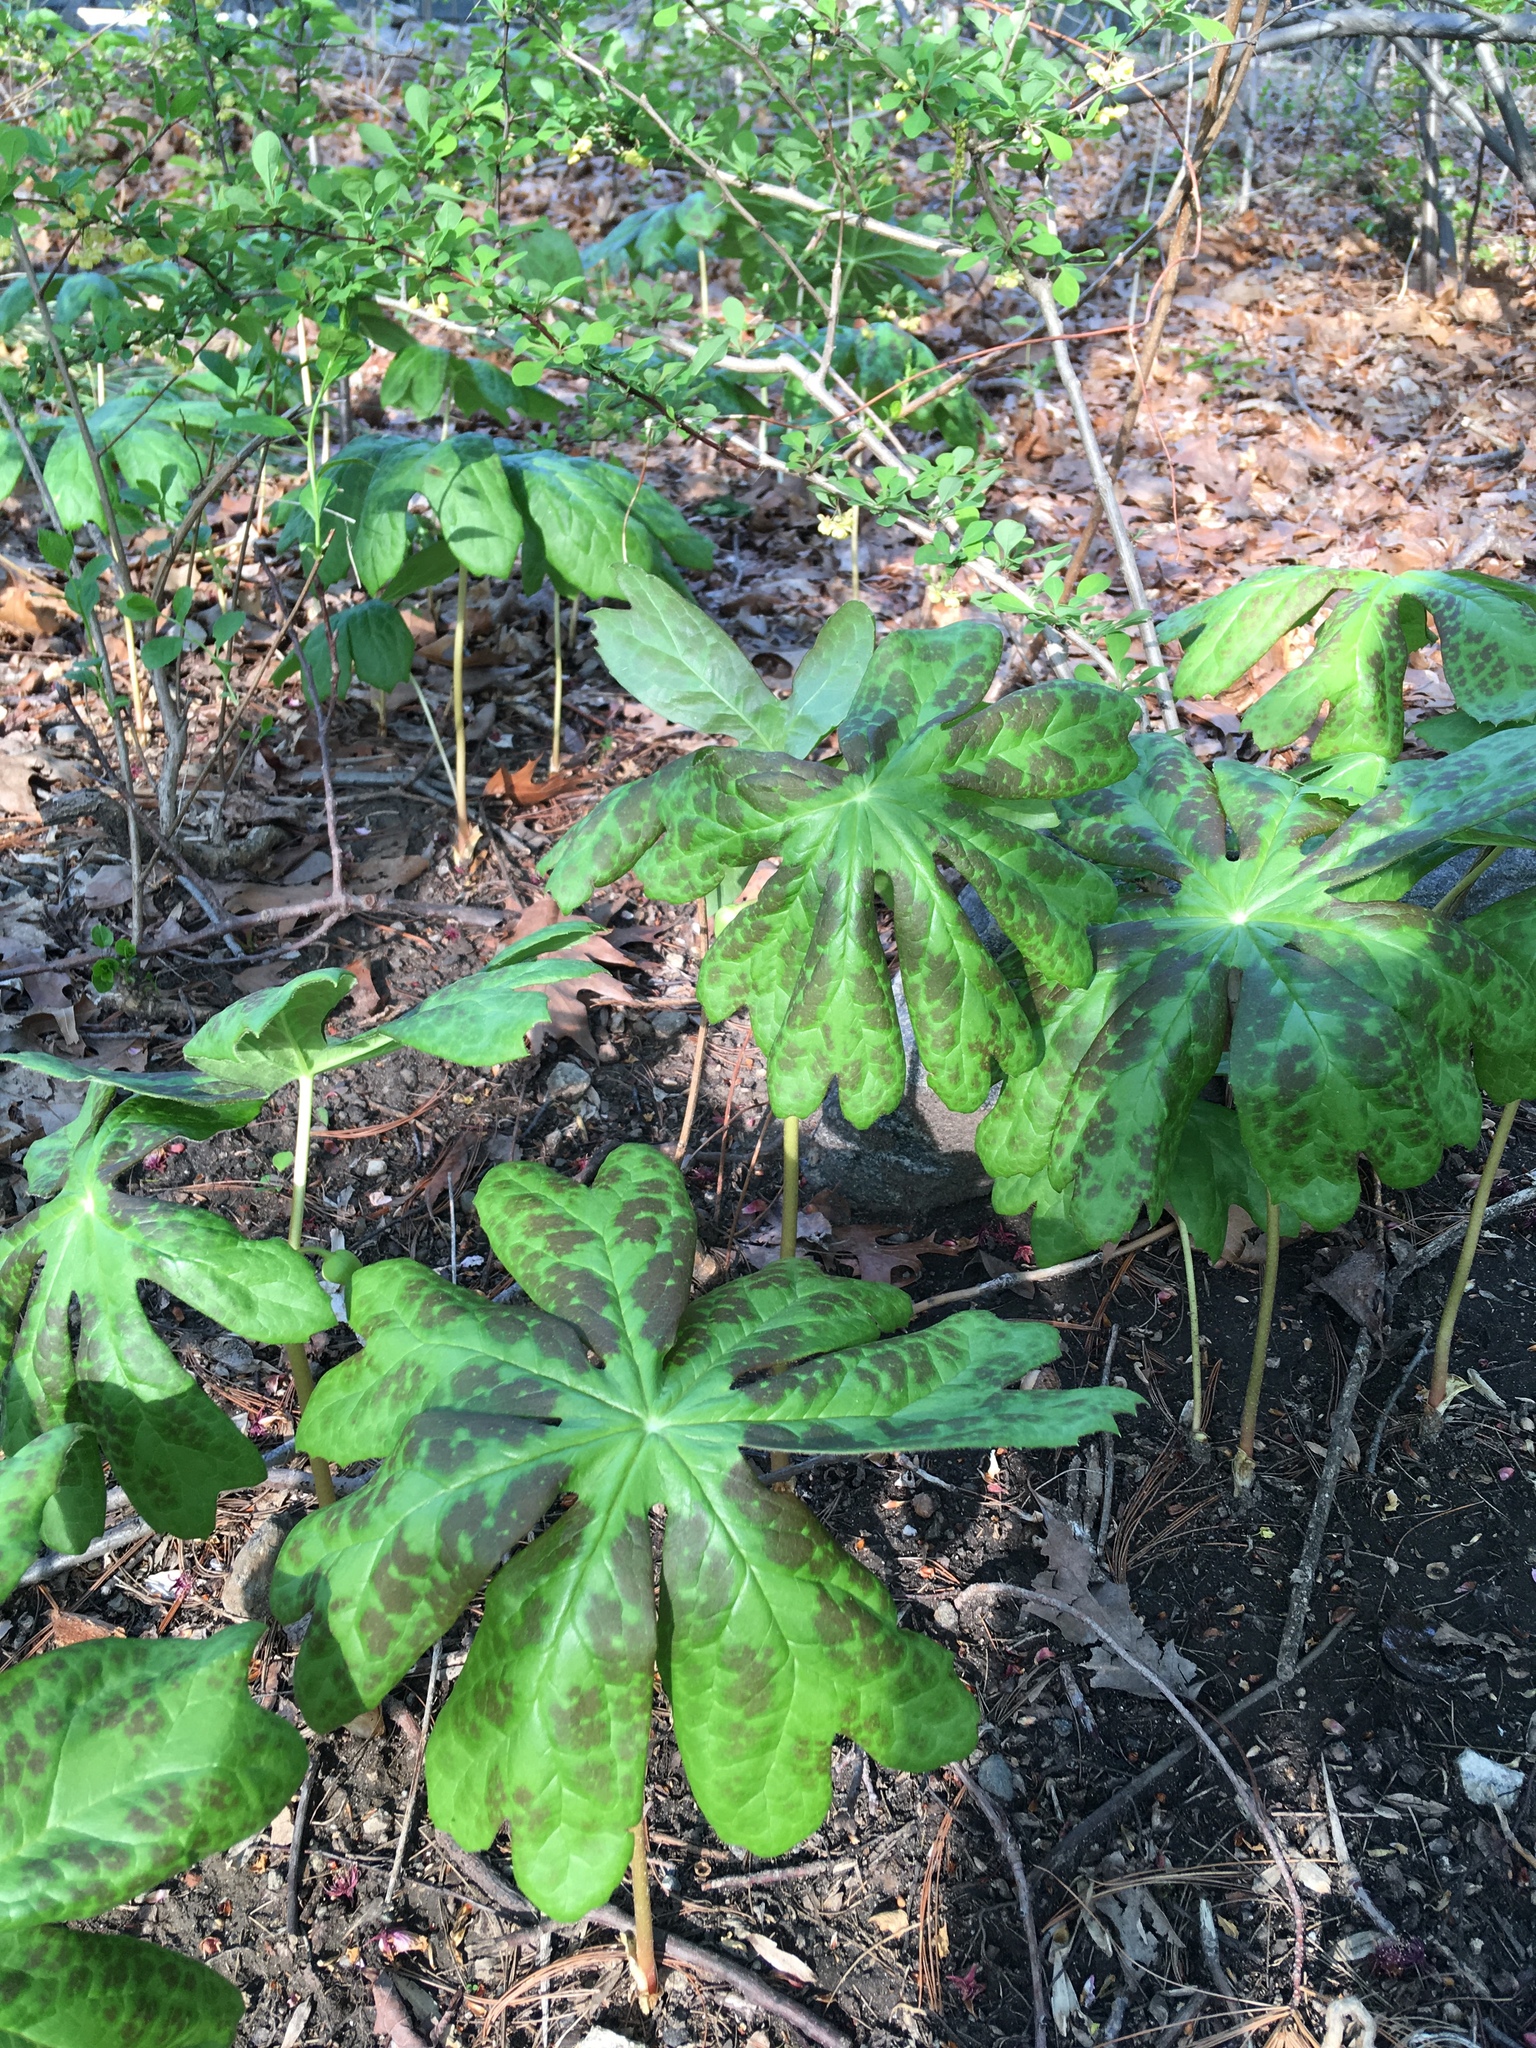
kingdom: Plantae
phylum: Tracheophyta
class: Magnoliopsida
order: Ranunculales
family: Berberidaceae
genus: Podophyllum
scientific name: Podophyllum peltatum
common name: Wild mandrake
